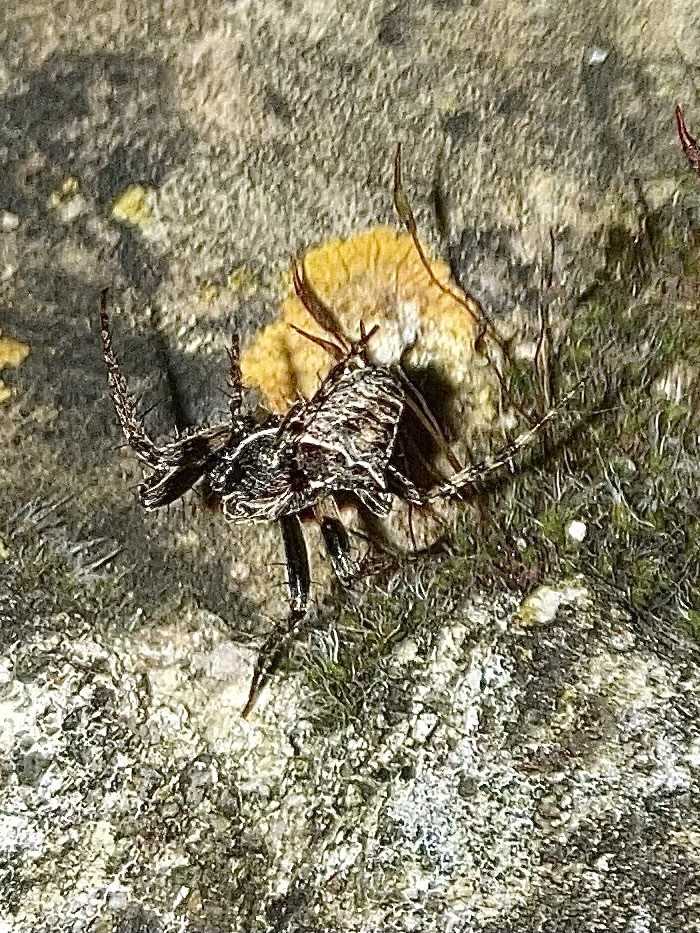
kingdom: Animalia
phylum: Arthropoda
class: Arachnida
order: Araneae
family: Araneidae
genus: Gibbaranea
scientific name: Gibbaranea bituberculata
